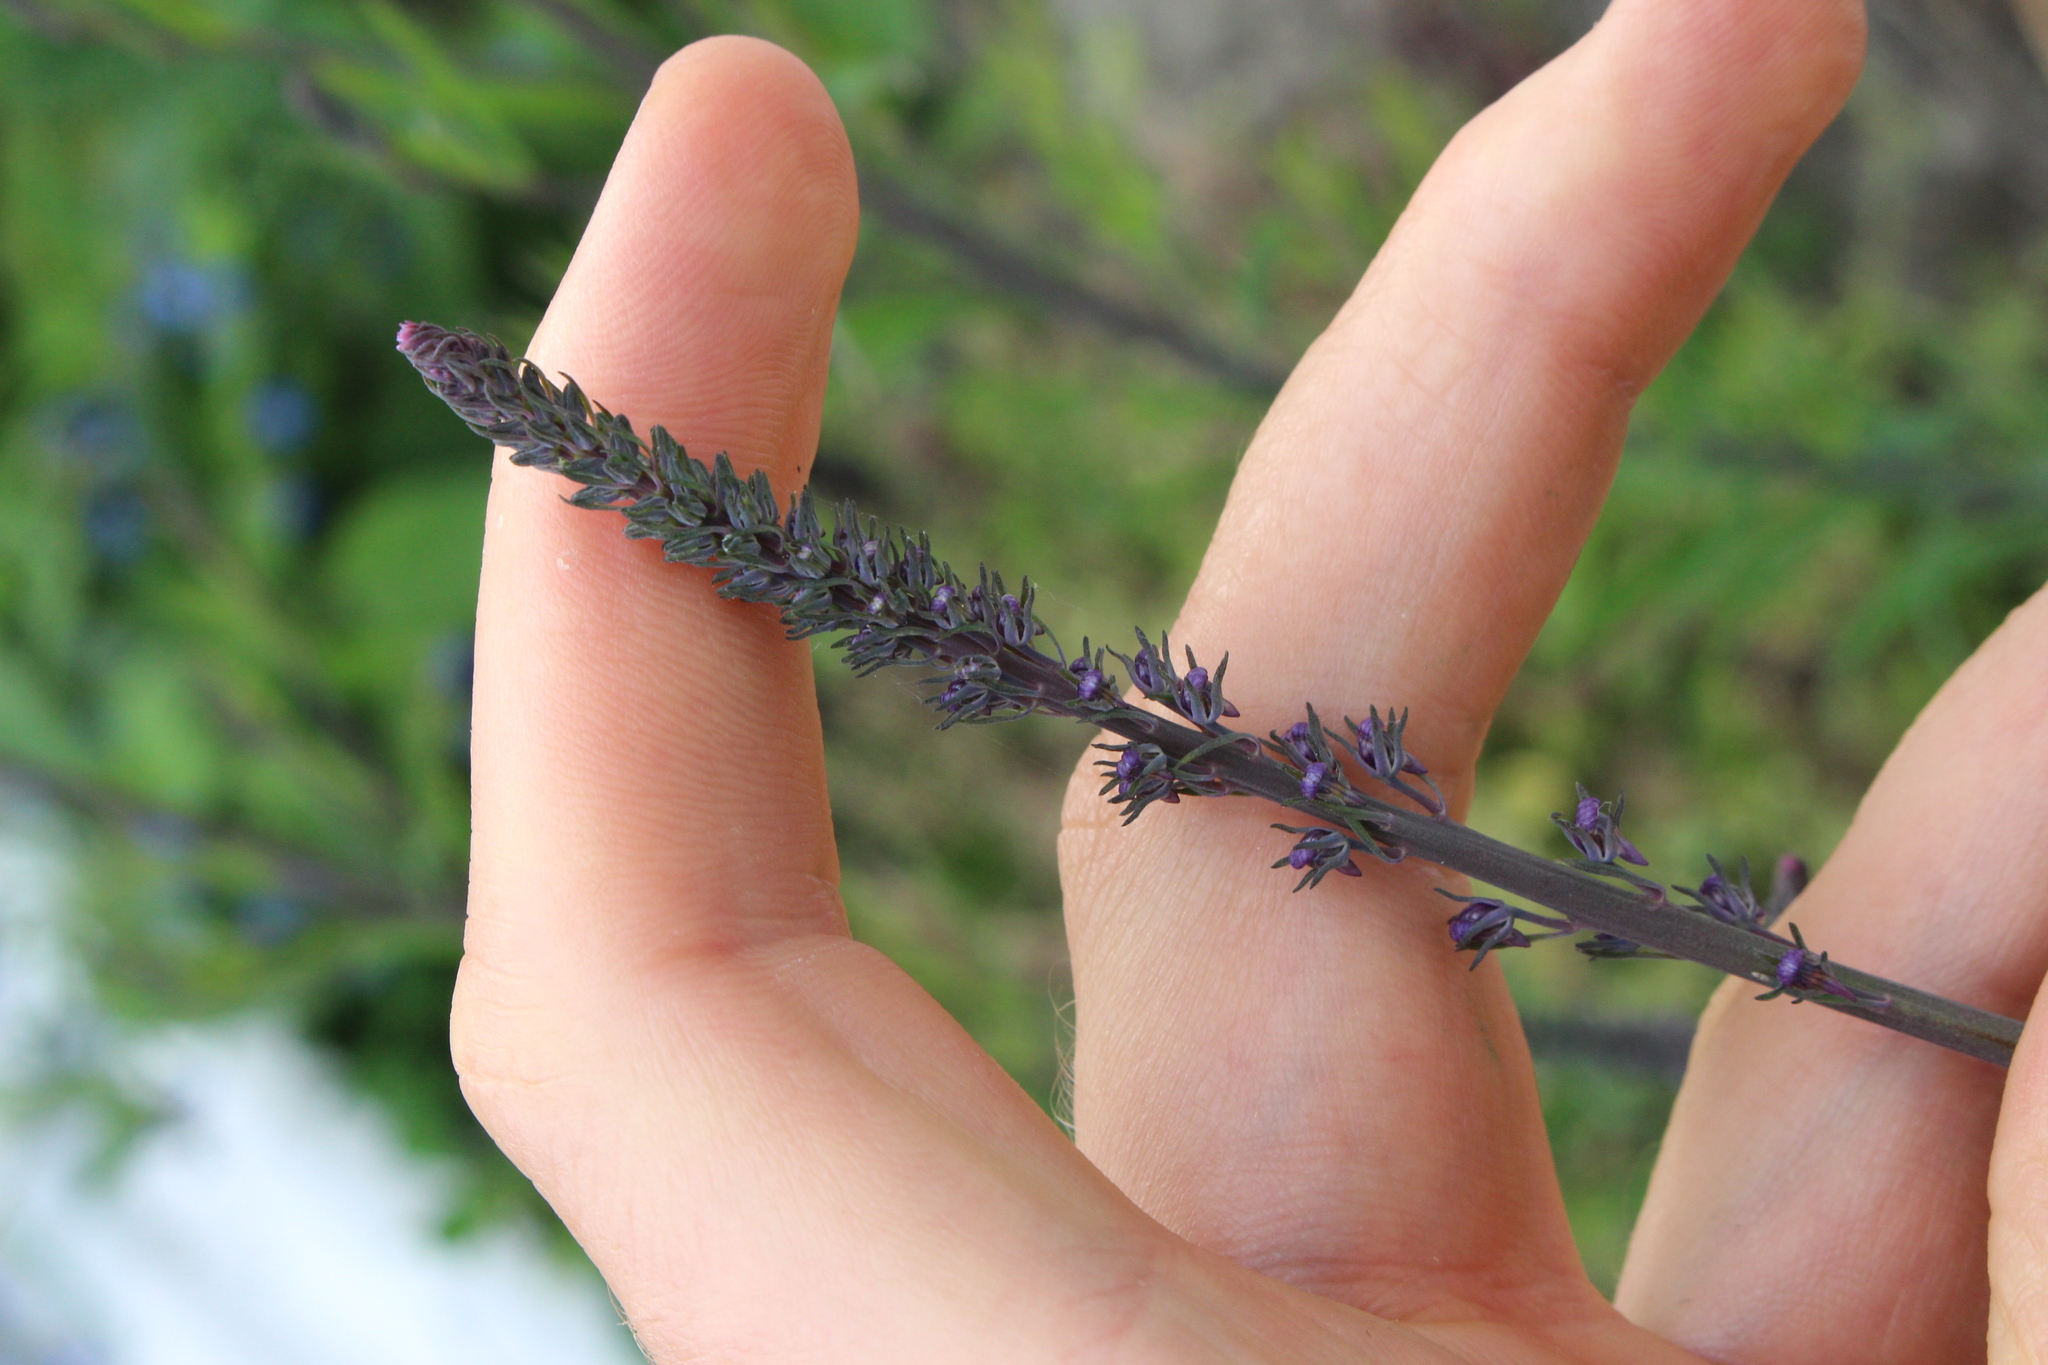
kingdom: Plantae
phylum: Tracheophyta
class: Magnoliopsida
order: Lamiales
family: Plantaginaceae
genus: Linaria
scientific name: Linaria purpurea
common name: Purple toadflax
